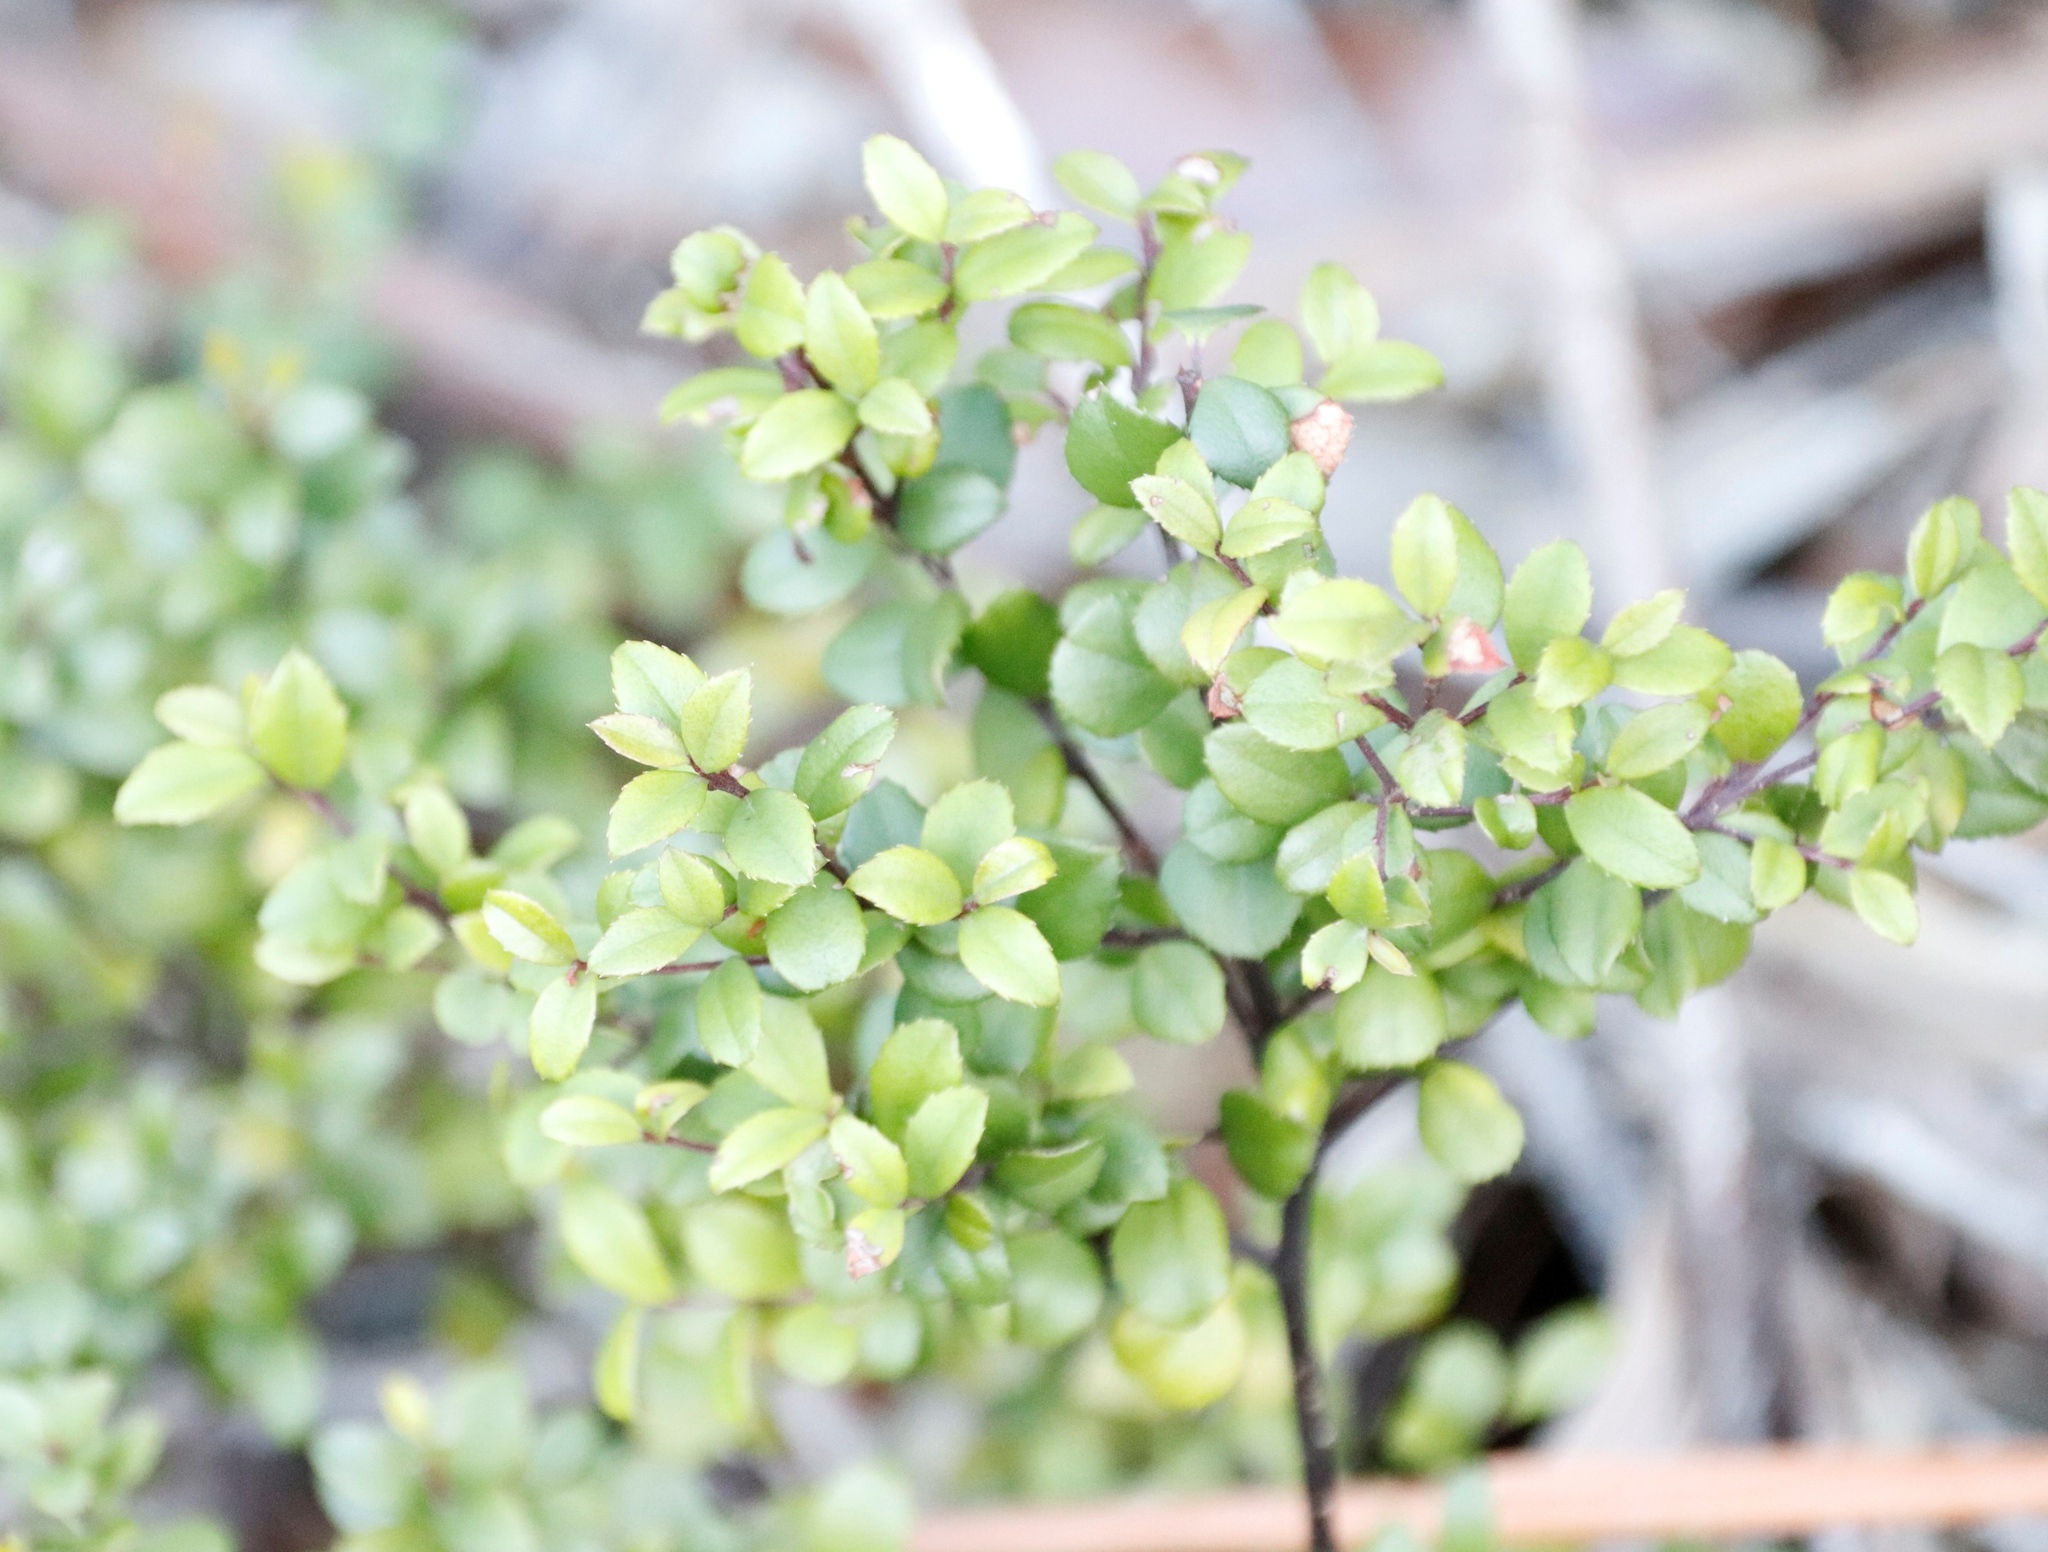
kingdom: Plantae
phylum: Tracheophyta
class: Magnoliopsida
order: Ericales
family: Primulaceae
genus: Myrsine
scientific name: Myrsine africana
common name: African-boxwood
